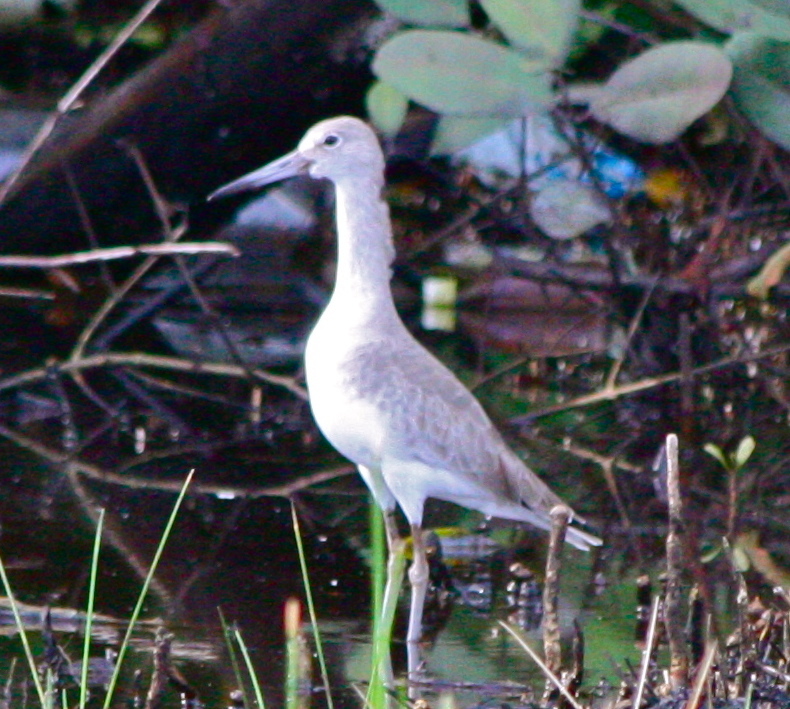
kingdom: Animalia
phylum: Chordata
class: Aves
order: Charadriiformes
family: Scolopacidae
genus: Tringa
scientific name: Tringa semipalmata
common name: Willet
